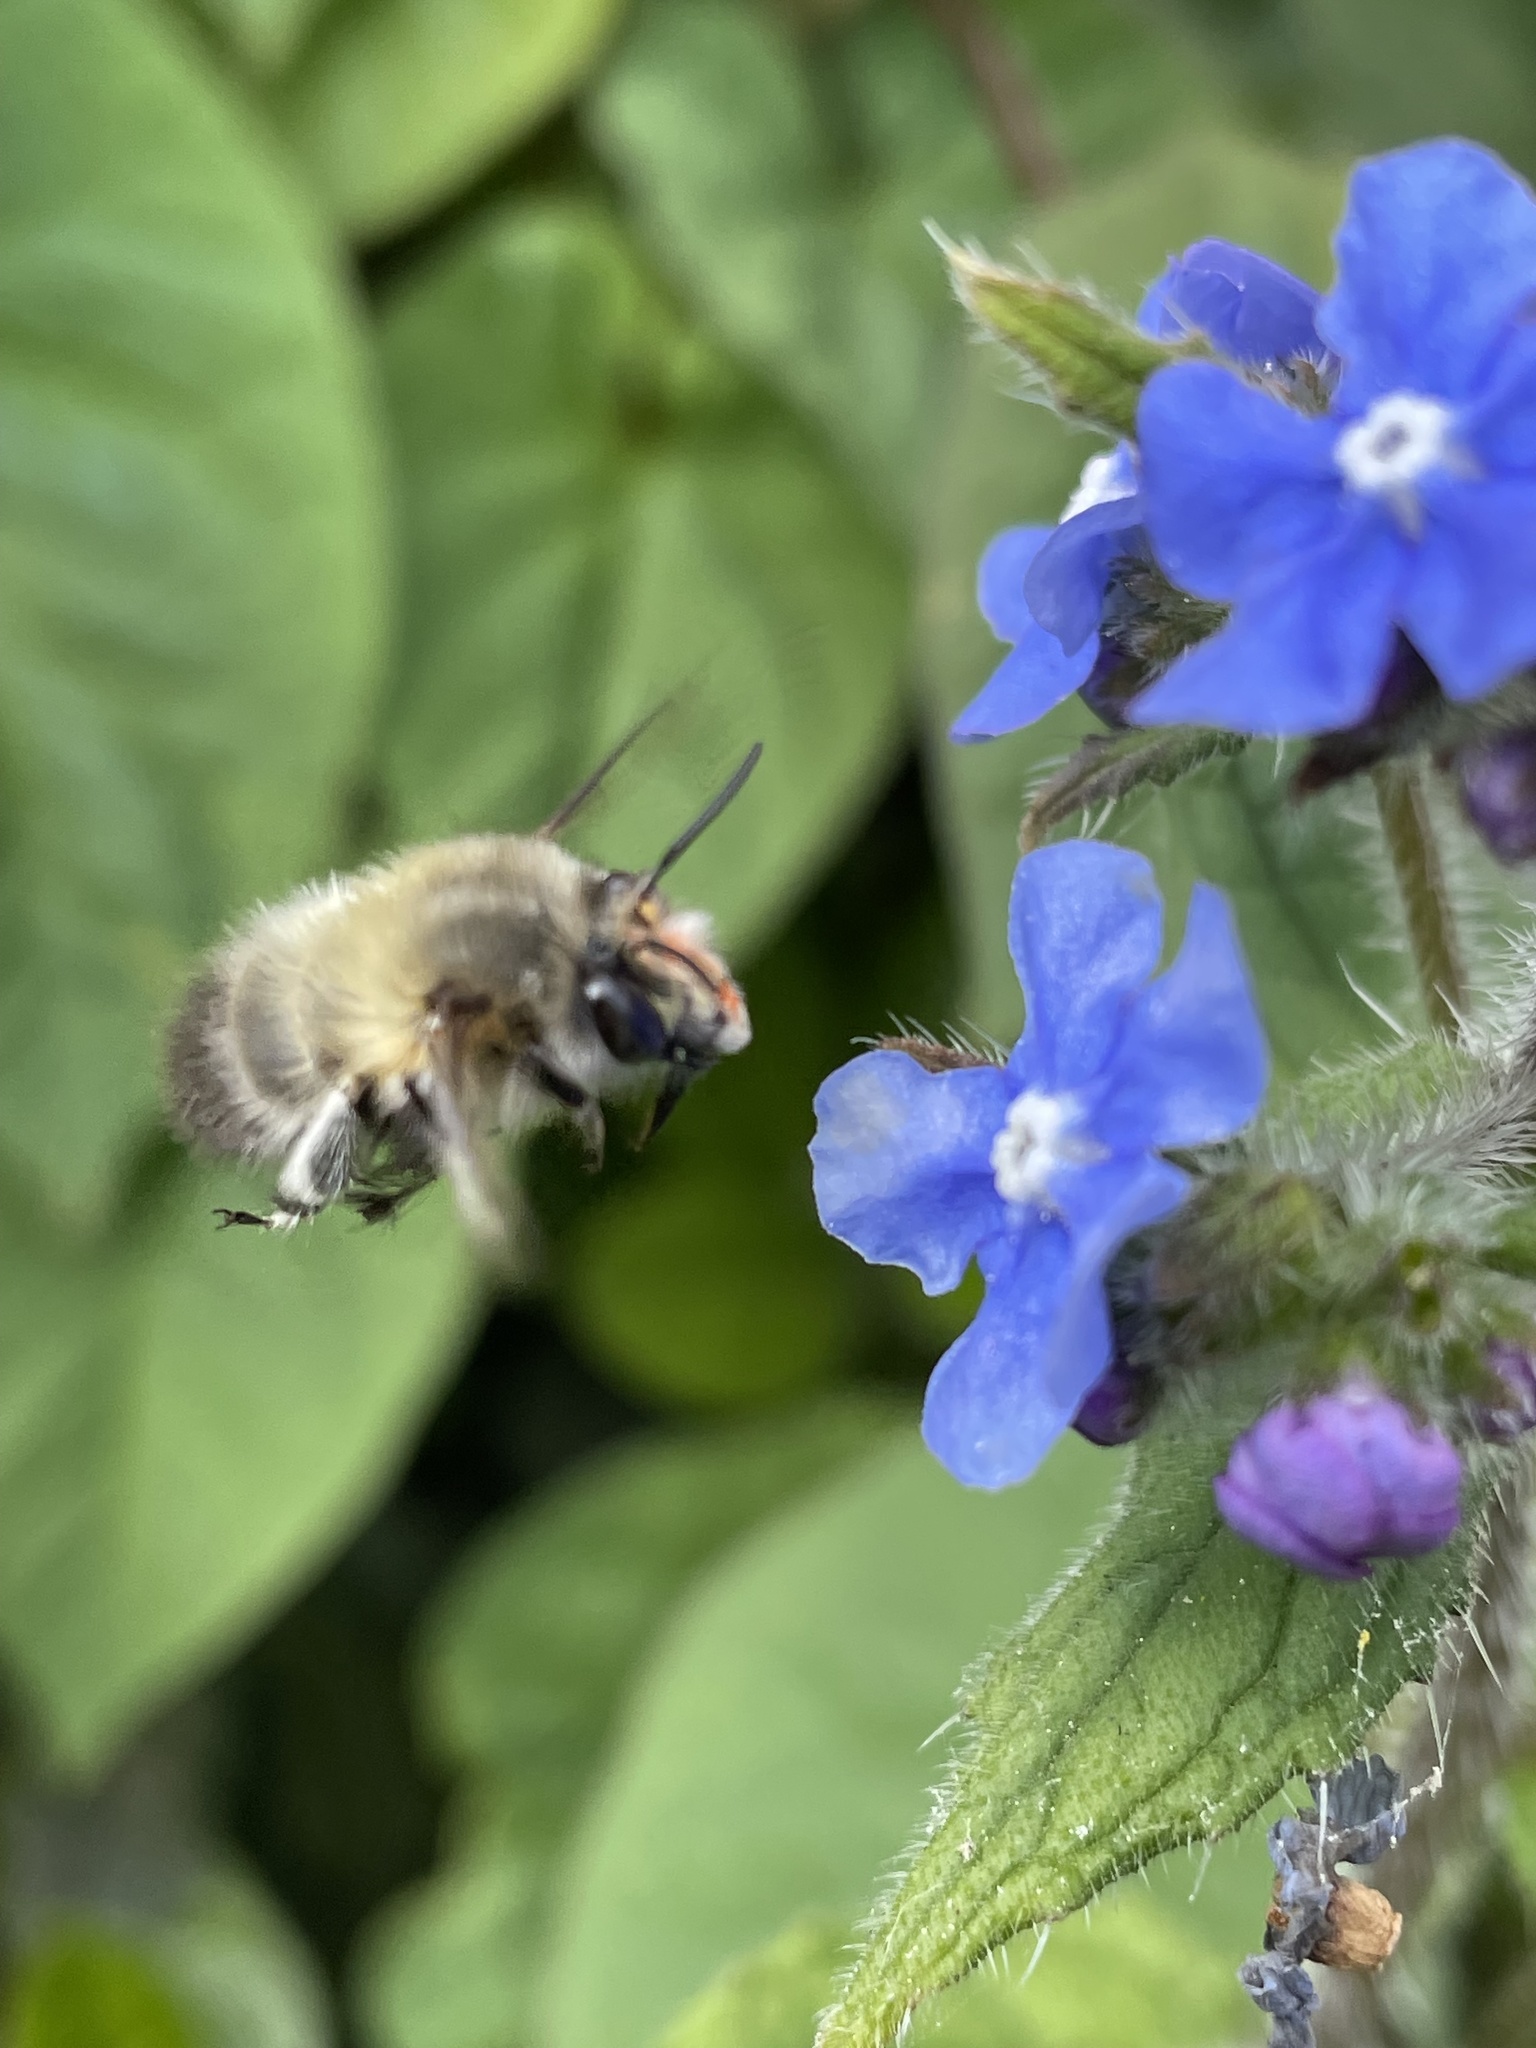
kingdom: Animalia
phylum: Arthropoda
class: Insecta
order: Hymenoptera
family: Apidae
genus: Anthophora
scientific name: Anthophora plumipes
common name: Hairy-footed flower bee
